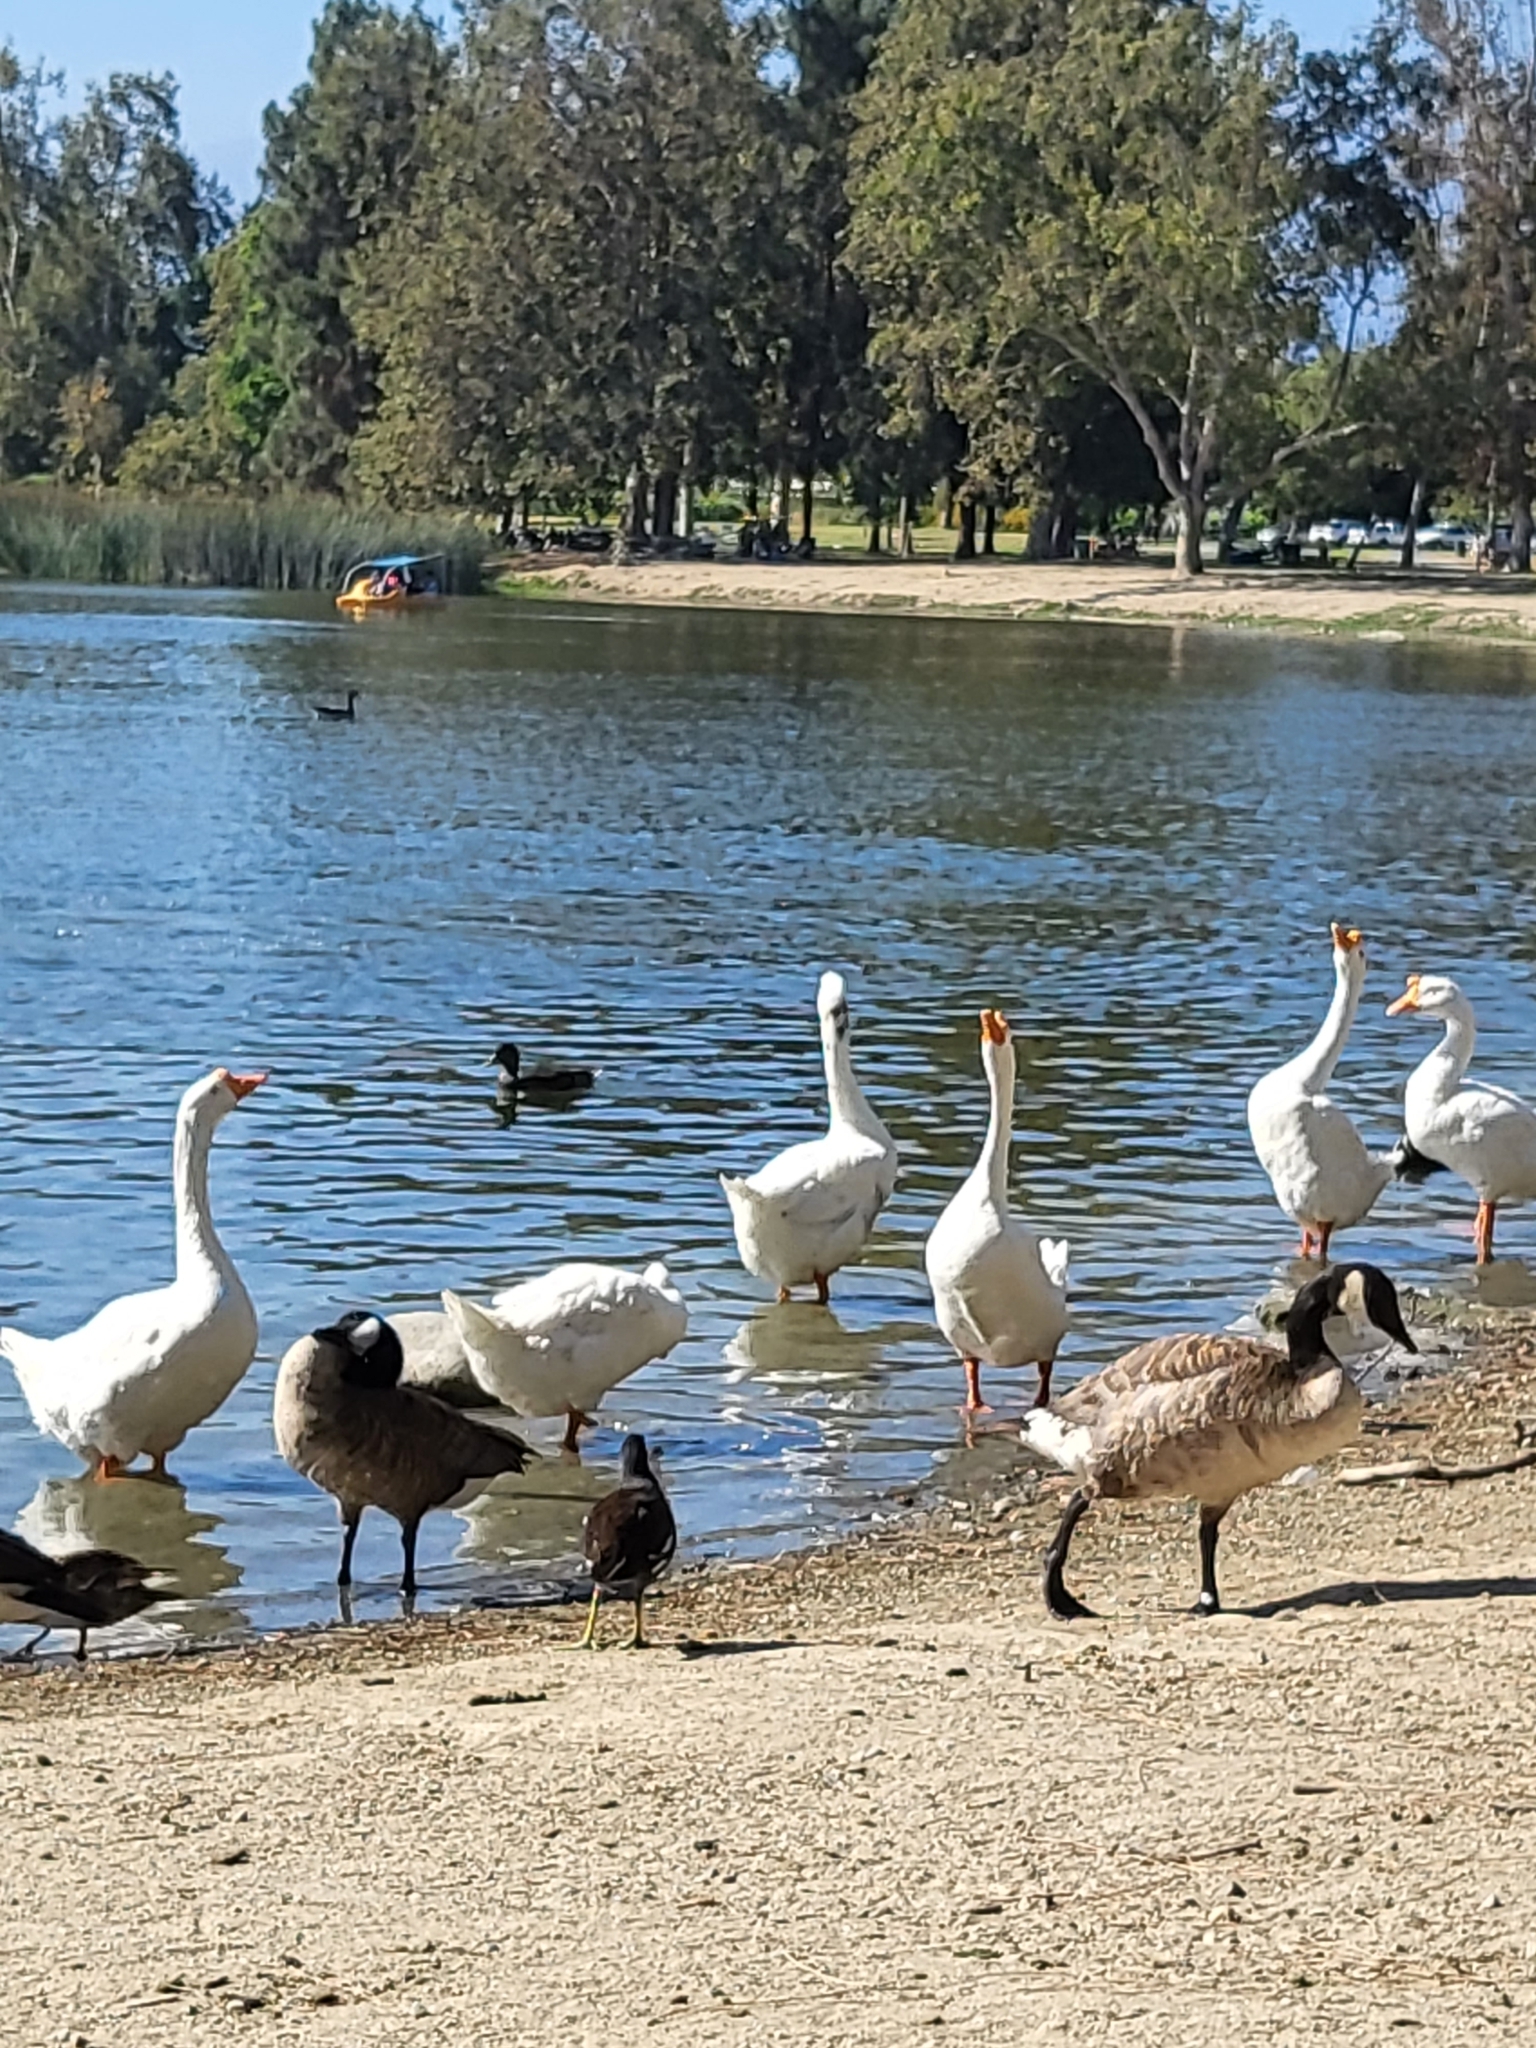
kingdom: Animalia
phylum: Chordata
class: Aves
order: Anseriformes
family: Anatidae
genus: Branta
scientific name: Branta canadensis
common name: Canada goose
